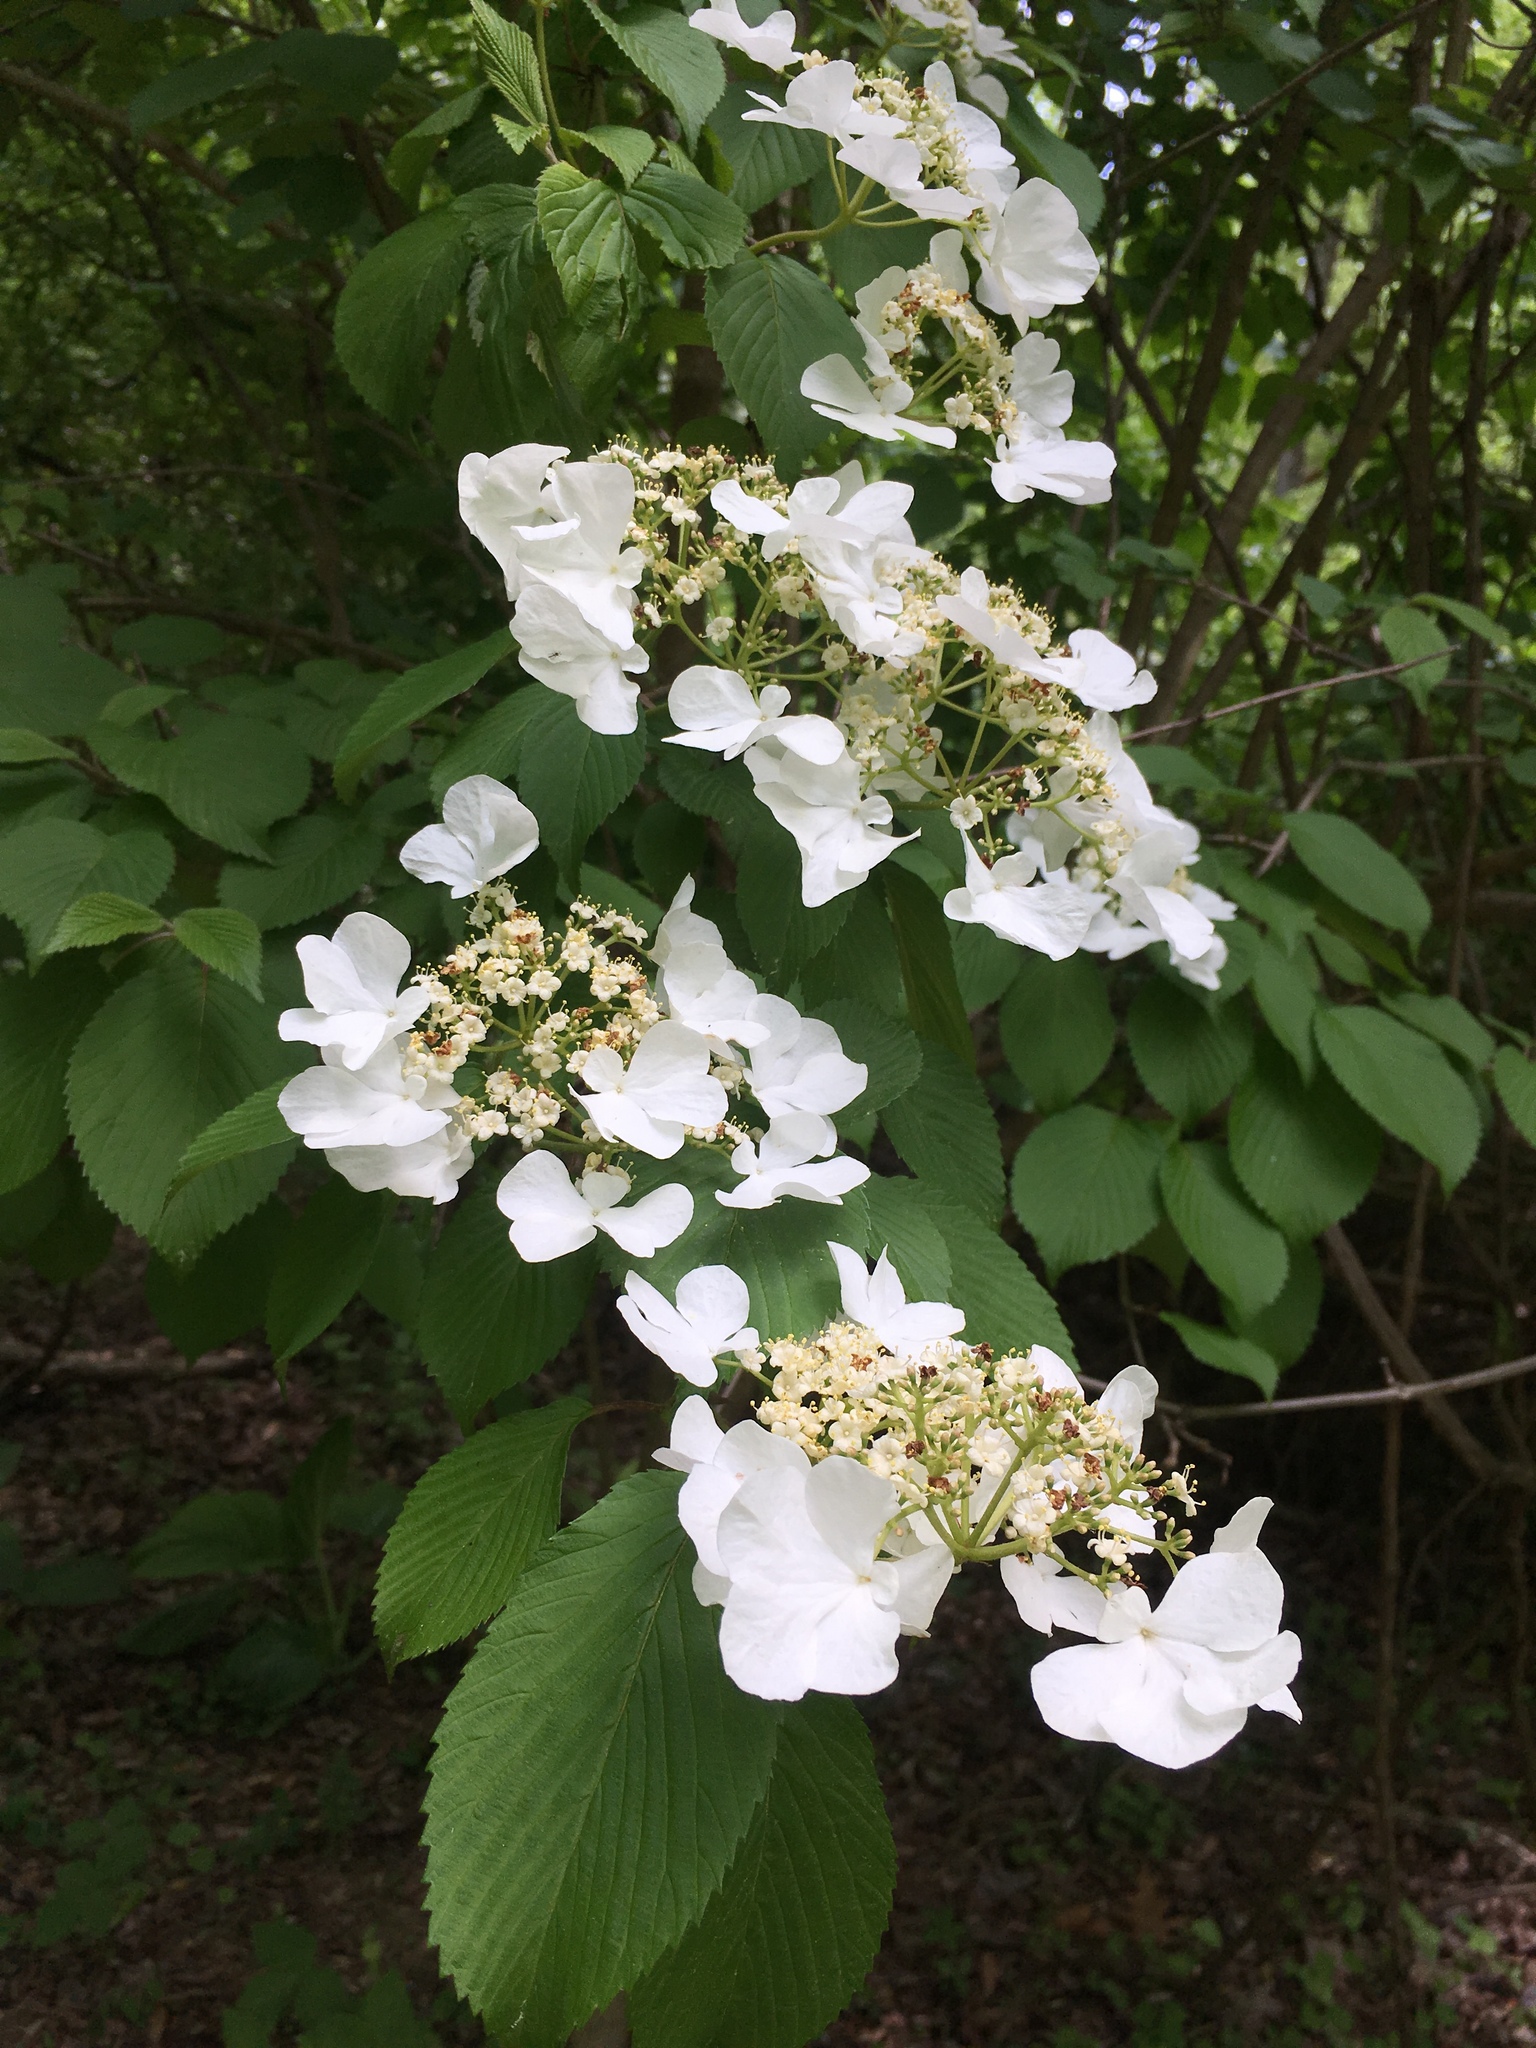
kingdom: Plantae
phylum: Tracheophyta
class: Magnoliopsida
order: Dipsacales
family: Viburnaceae
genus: Viburnum
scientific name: Viburnum plicatum
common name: Japanese snowball
